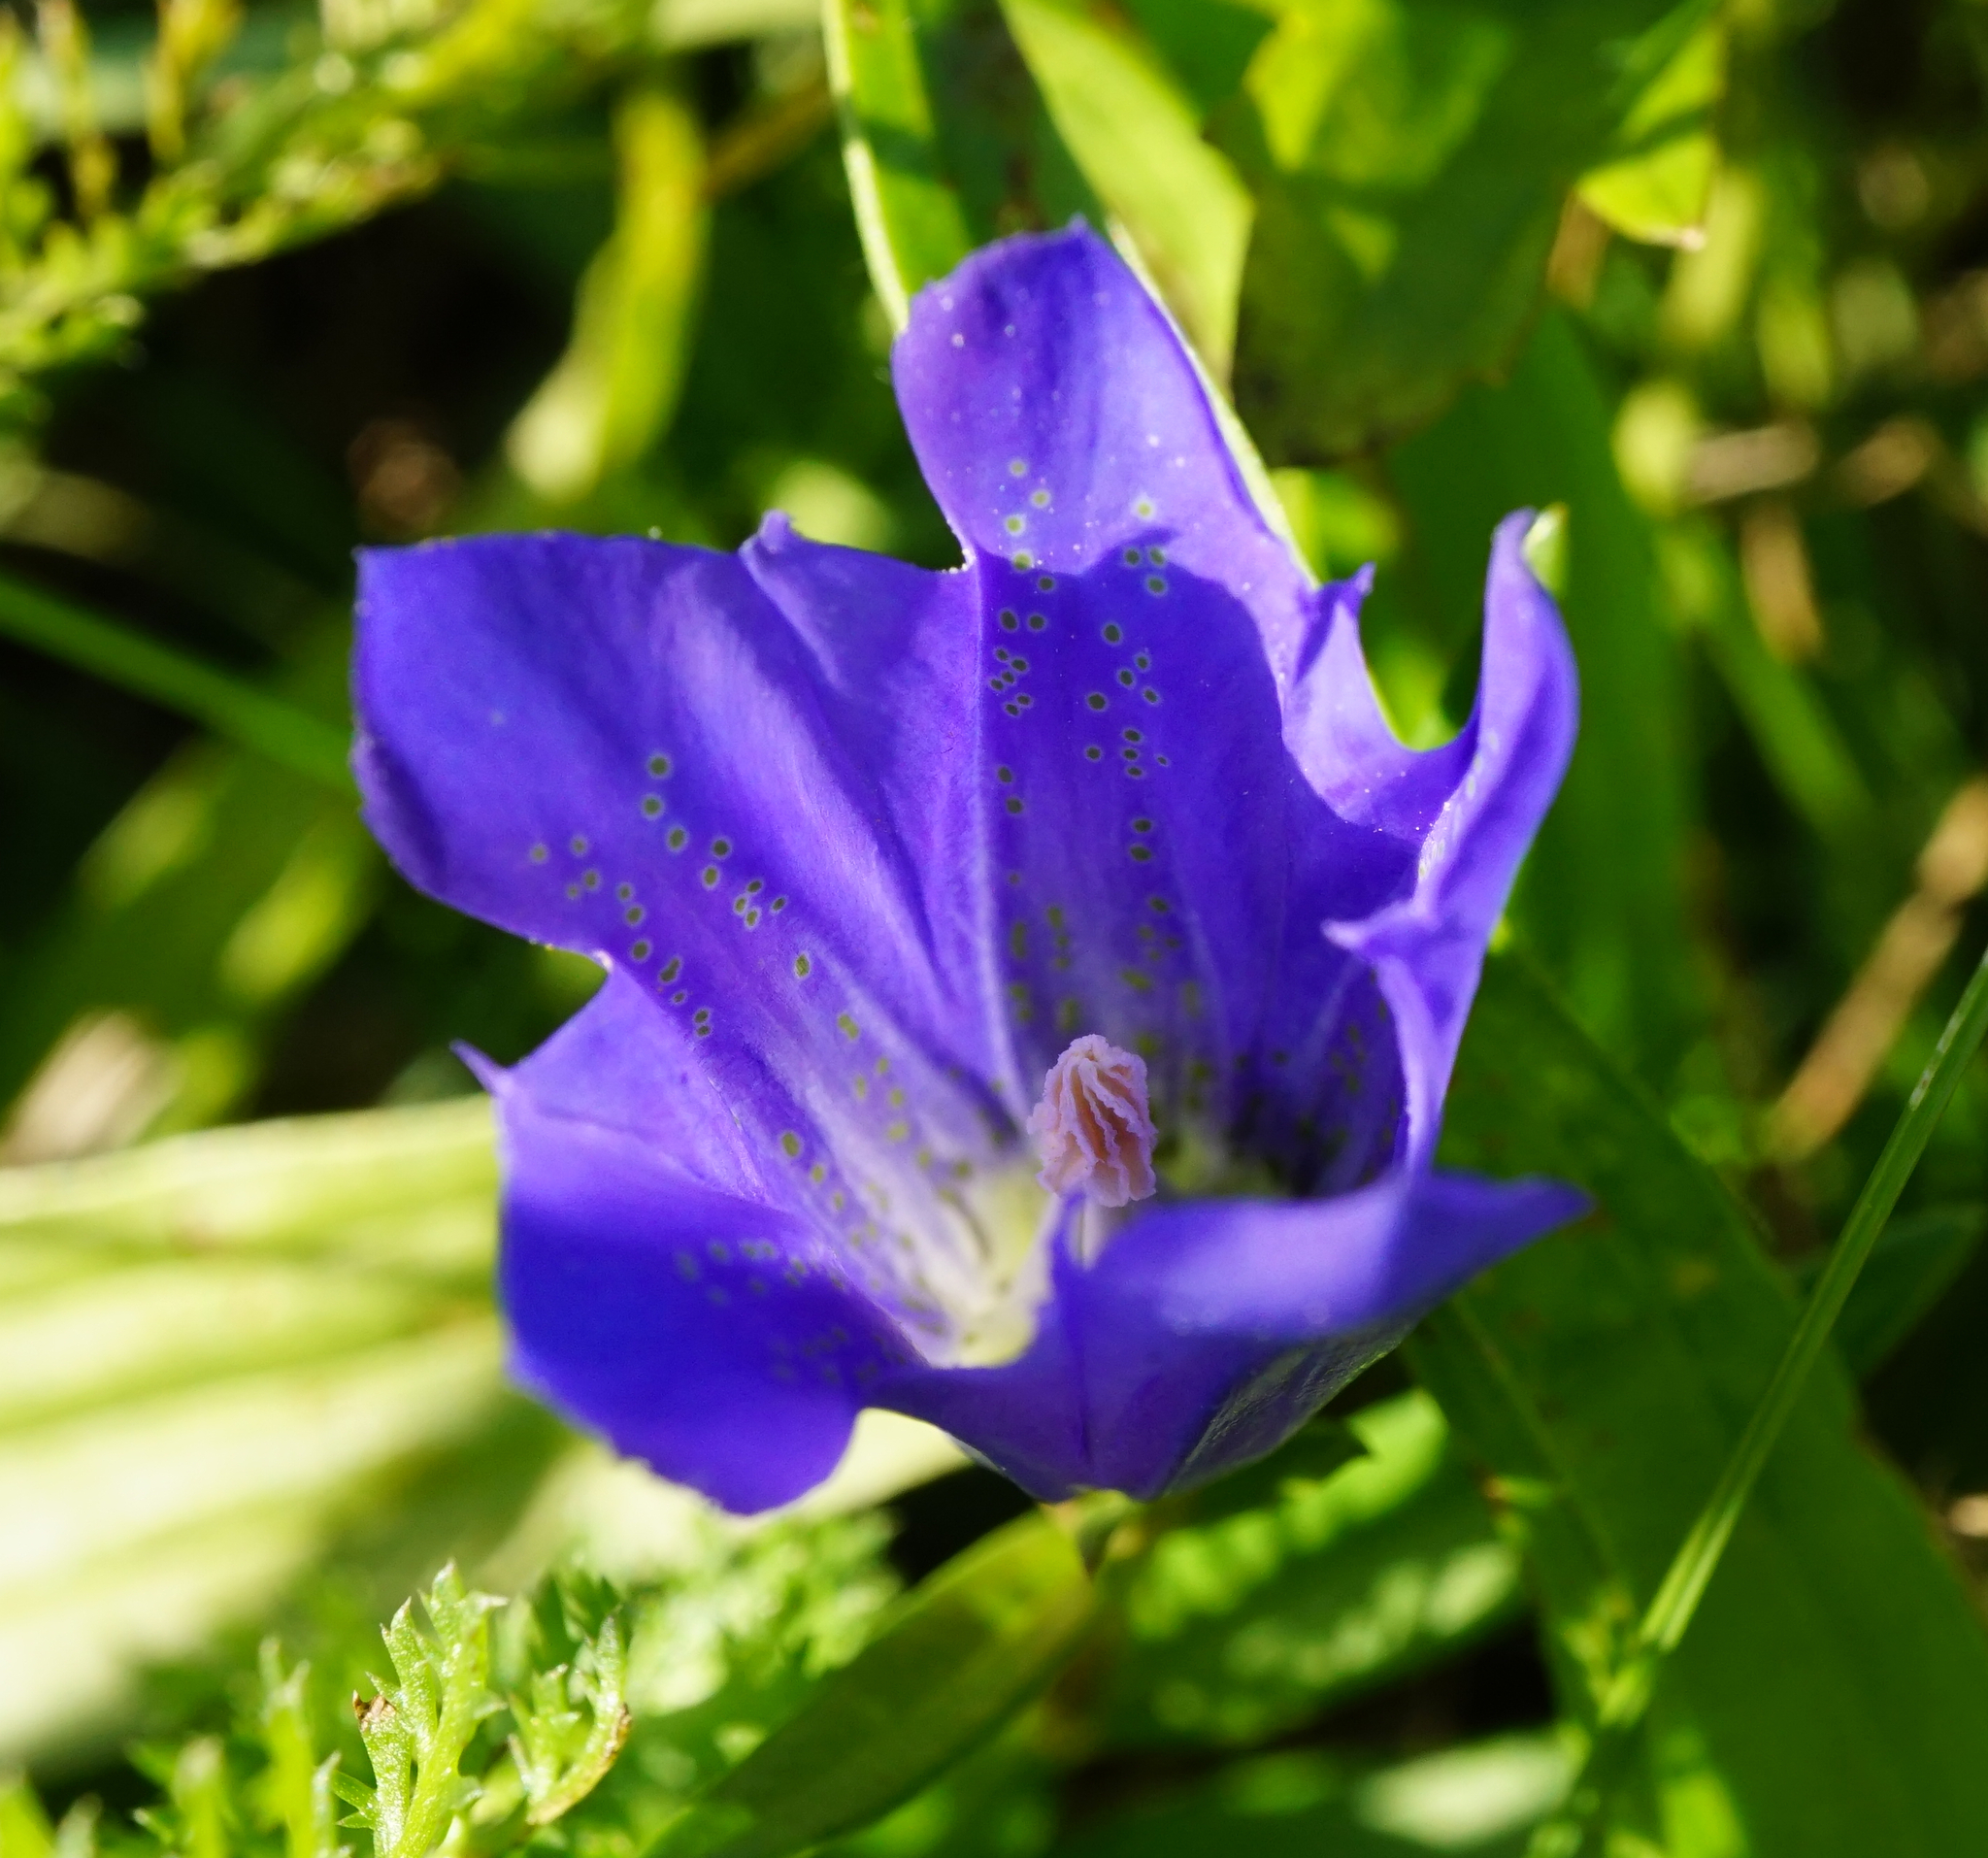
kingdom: Plantae
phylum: Tracheophyta
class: Magnoliopsida
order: Gentianales
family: Gentianaceae
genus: Gentiana
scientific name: Gentiana pneumonanthe
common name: Marsh gentian
